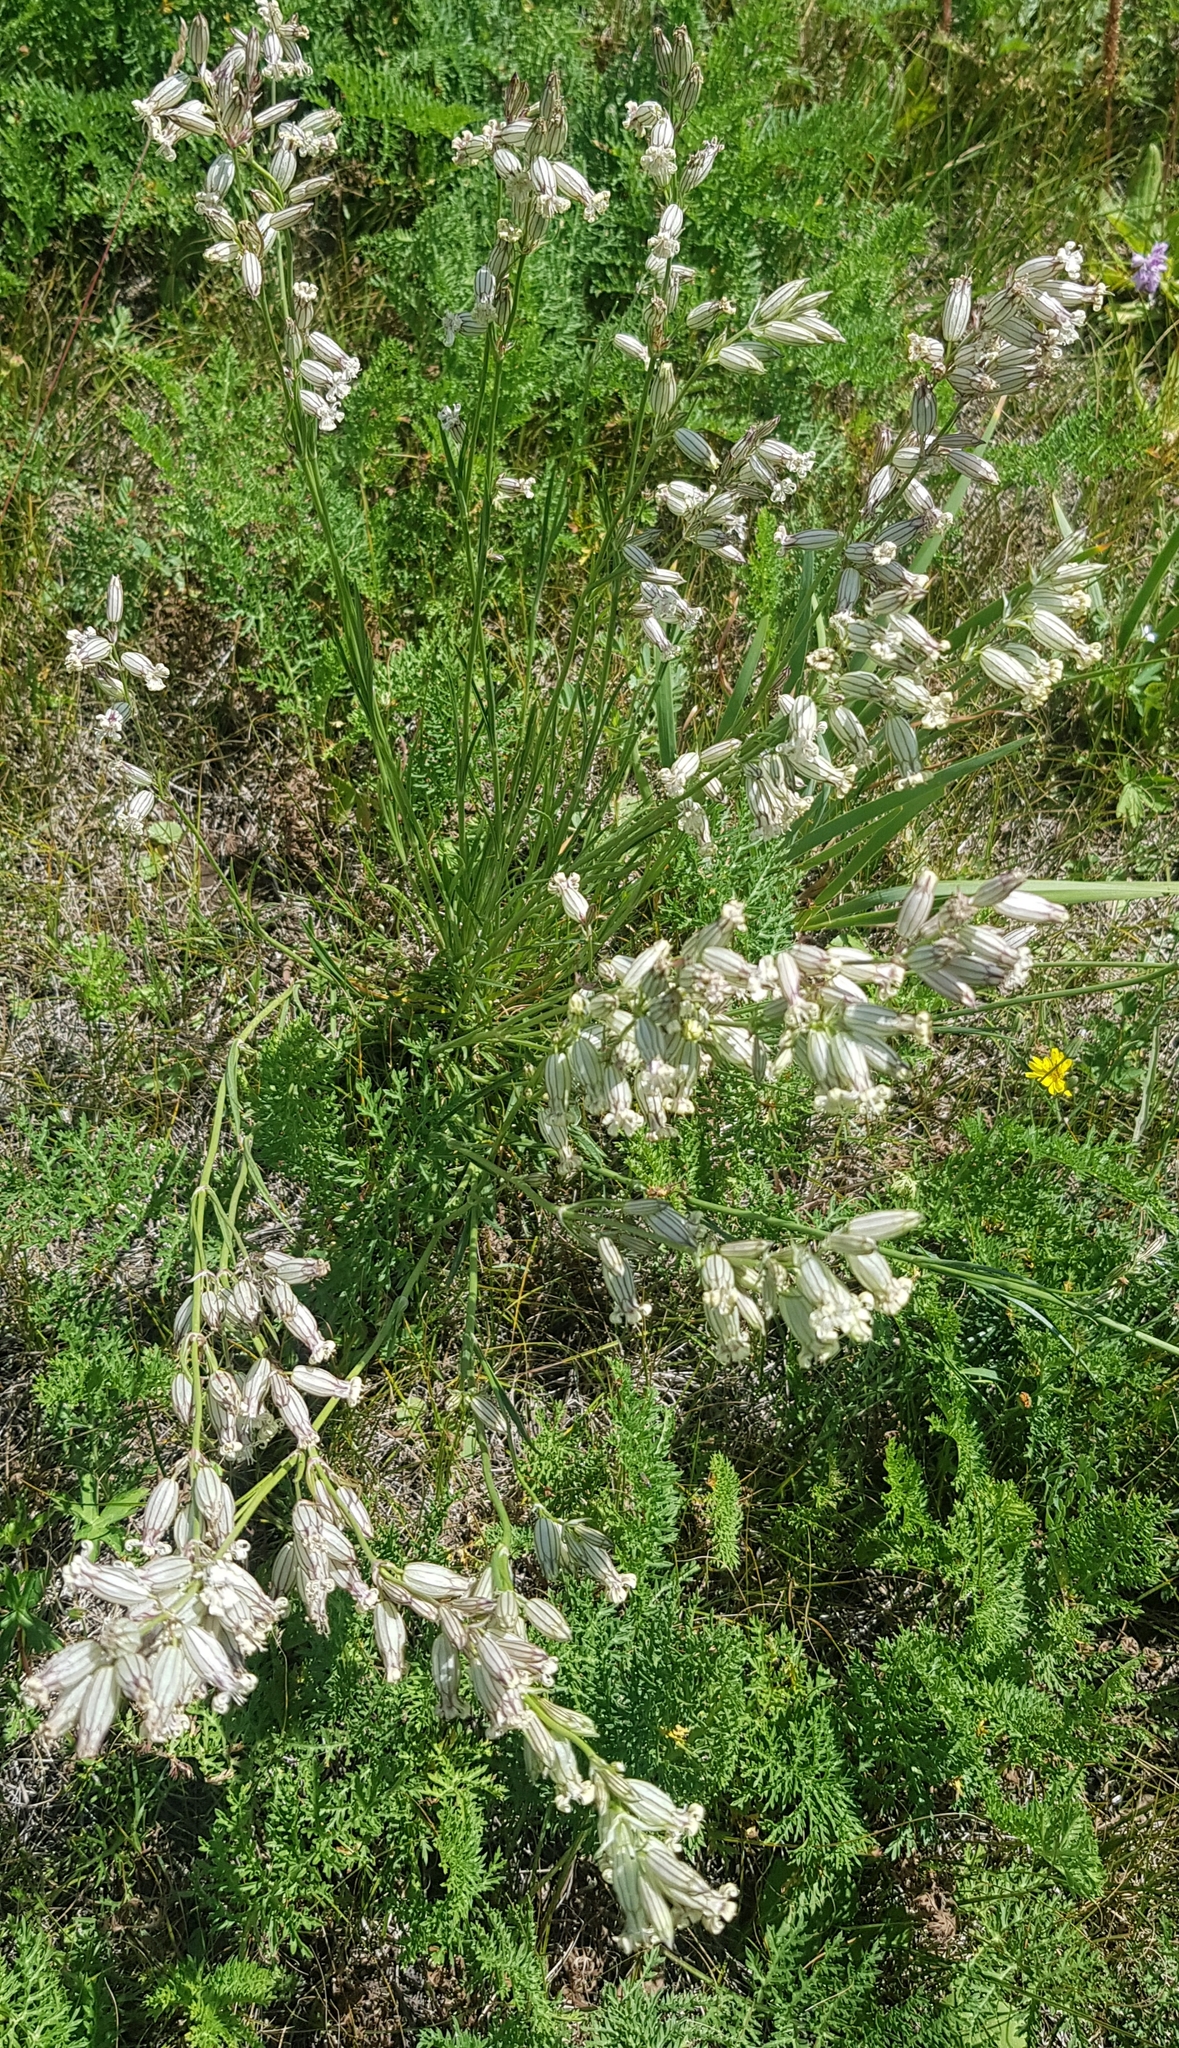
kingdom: Plantae
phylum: Tracheophyta
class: Magnoliopsida
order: Caryophyllales
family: Caryophyllaceae
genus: Silene
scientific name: Silene amoena
